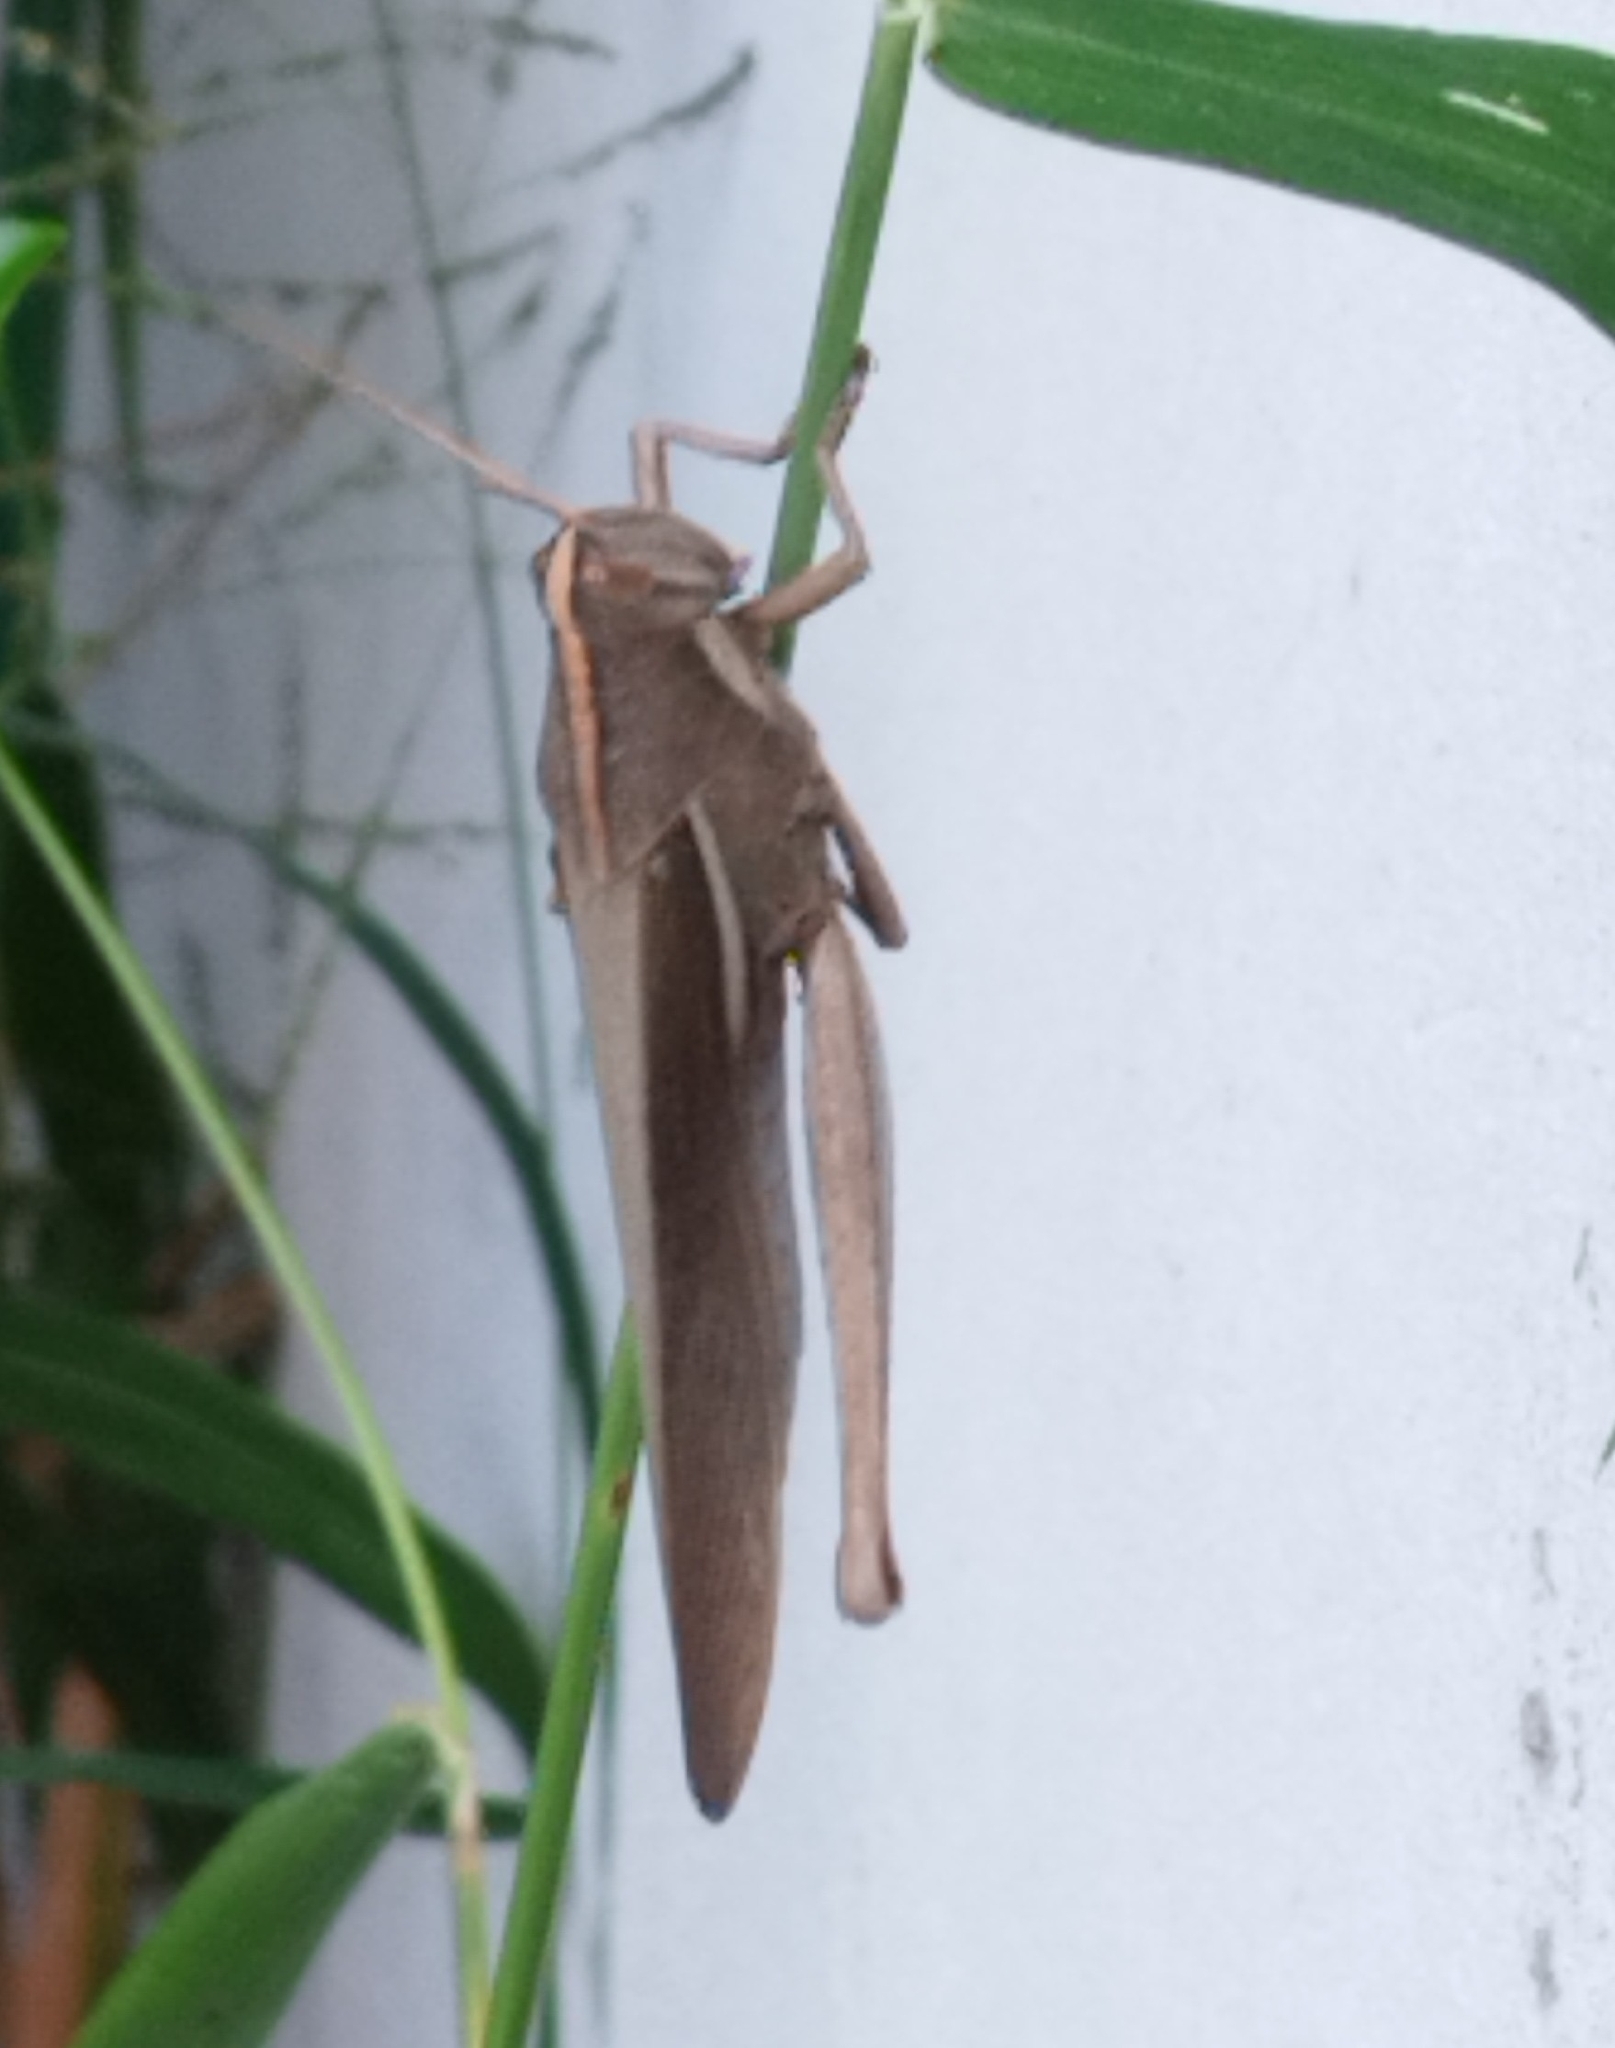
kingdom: Animalia
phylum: Arthropoda
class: Insecta
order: Orthoptera
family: Acrididae
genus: Schistocerca
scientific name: Schistocerca flavofasciata
